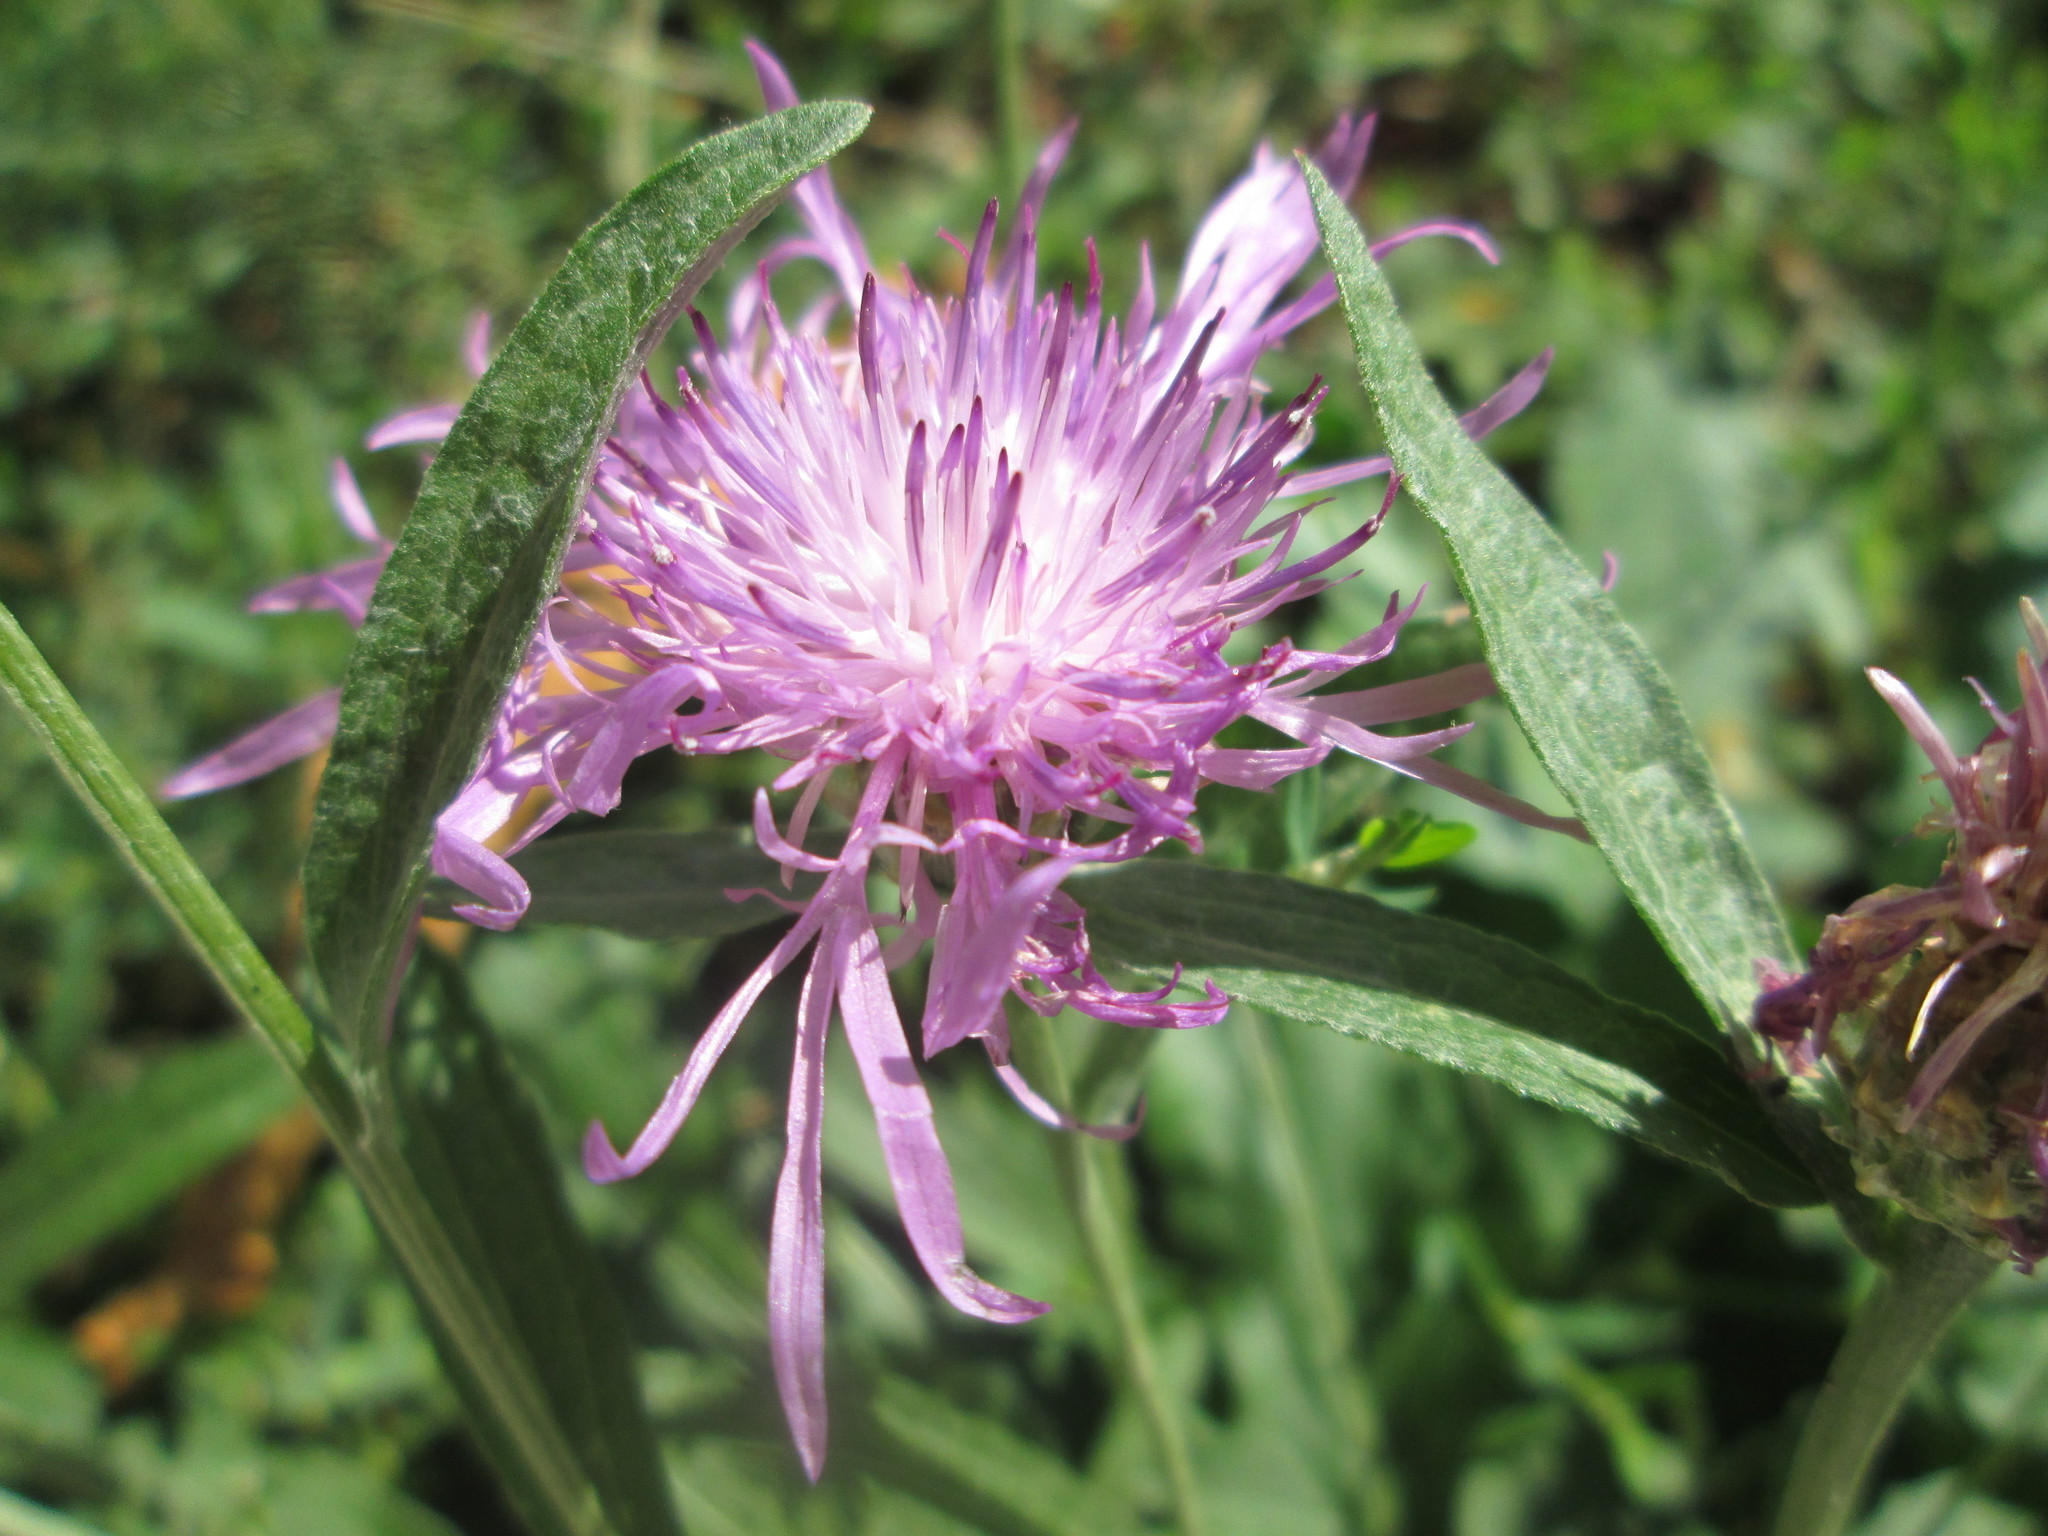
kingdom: Plantae
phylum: Tracheophyta
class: Magnoliopsida
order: Asterales
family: Asteraceae
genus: Centaurea
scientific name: Centaurea jacea
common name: Brown knapweed
